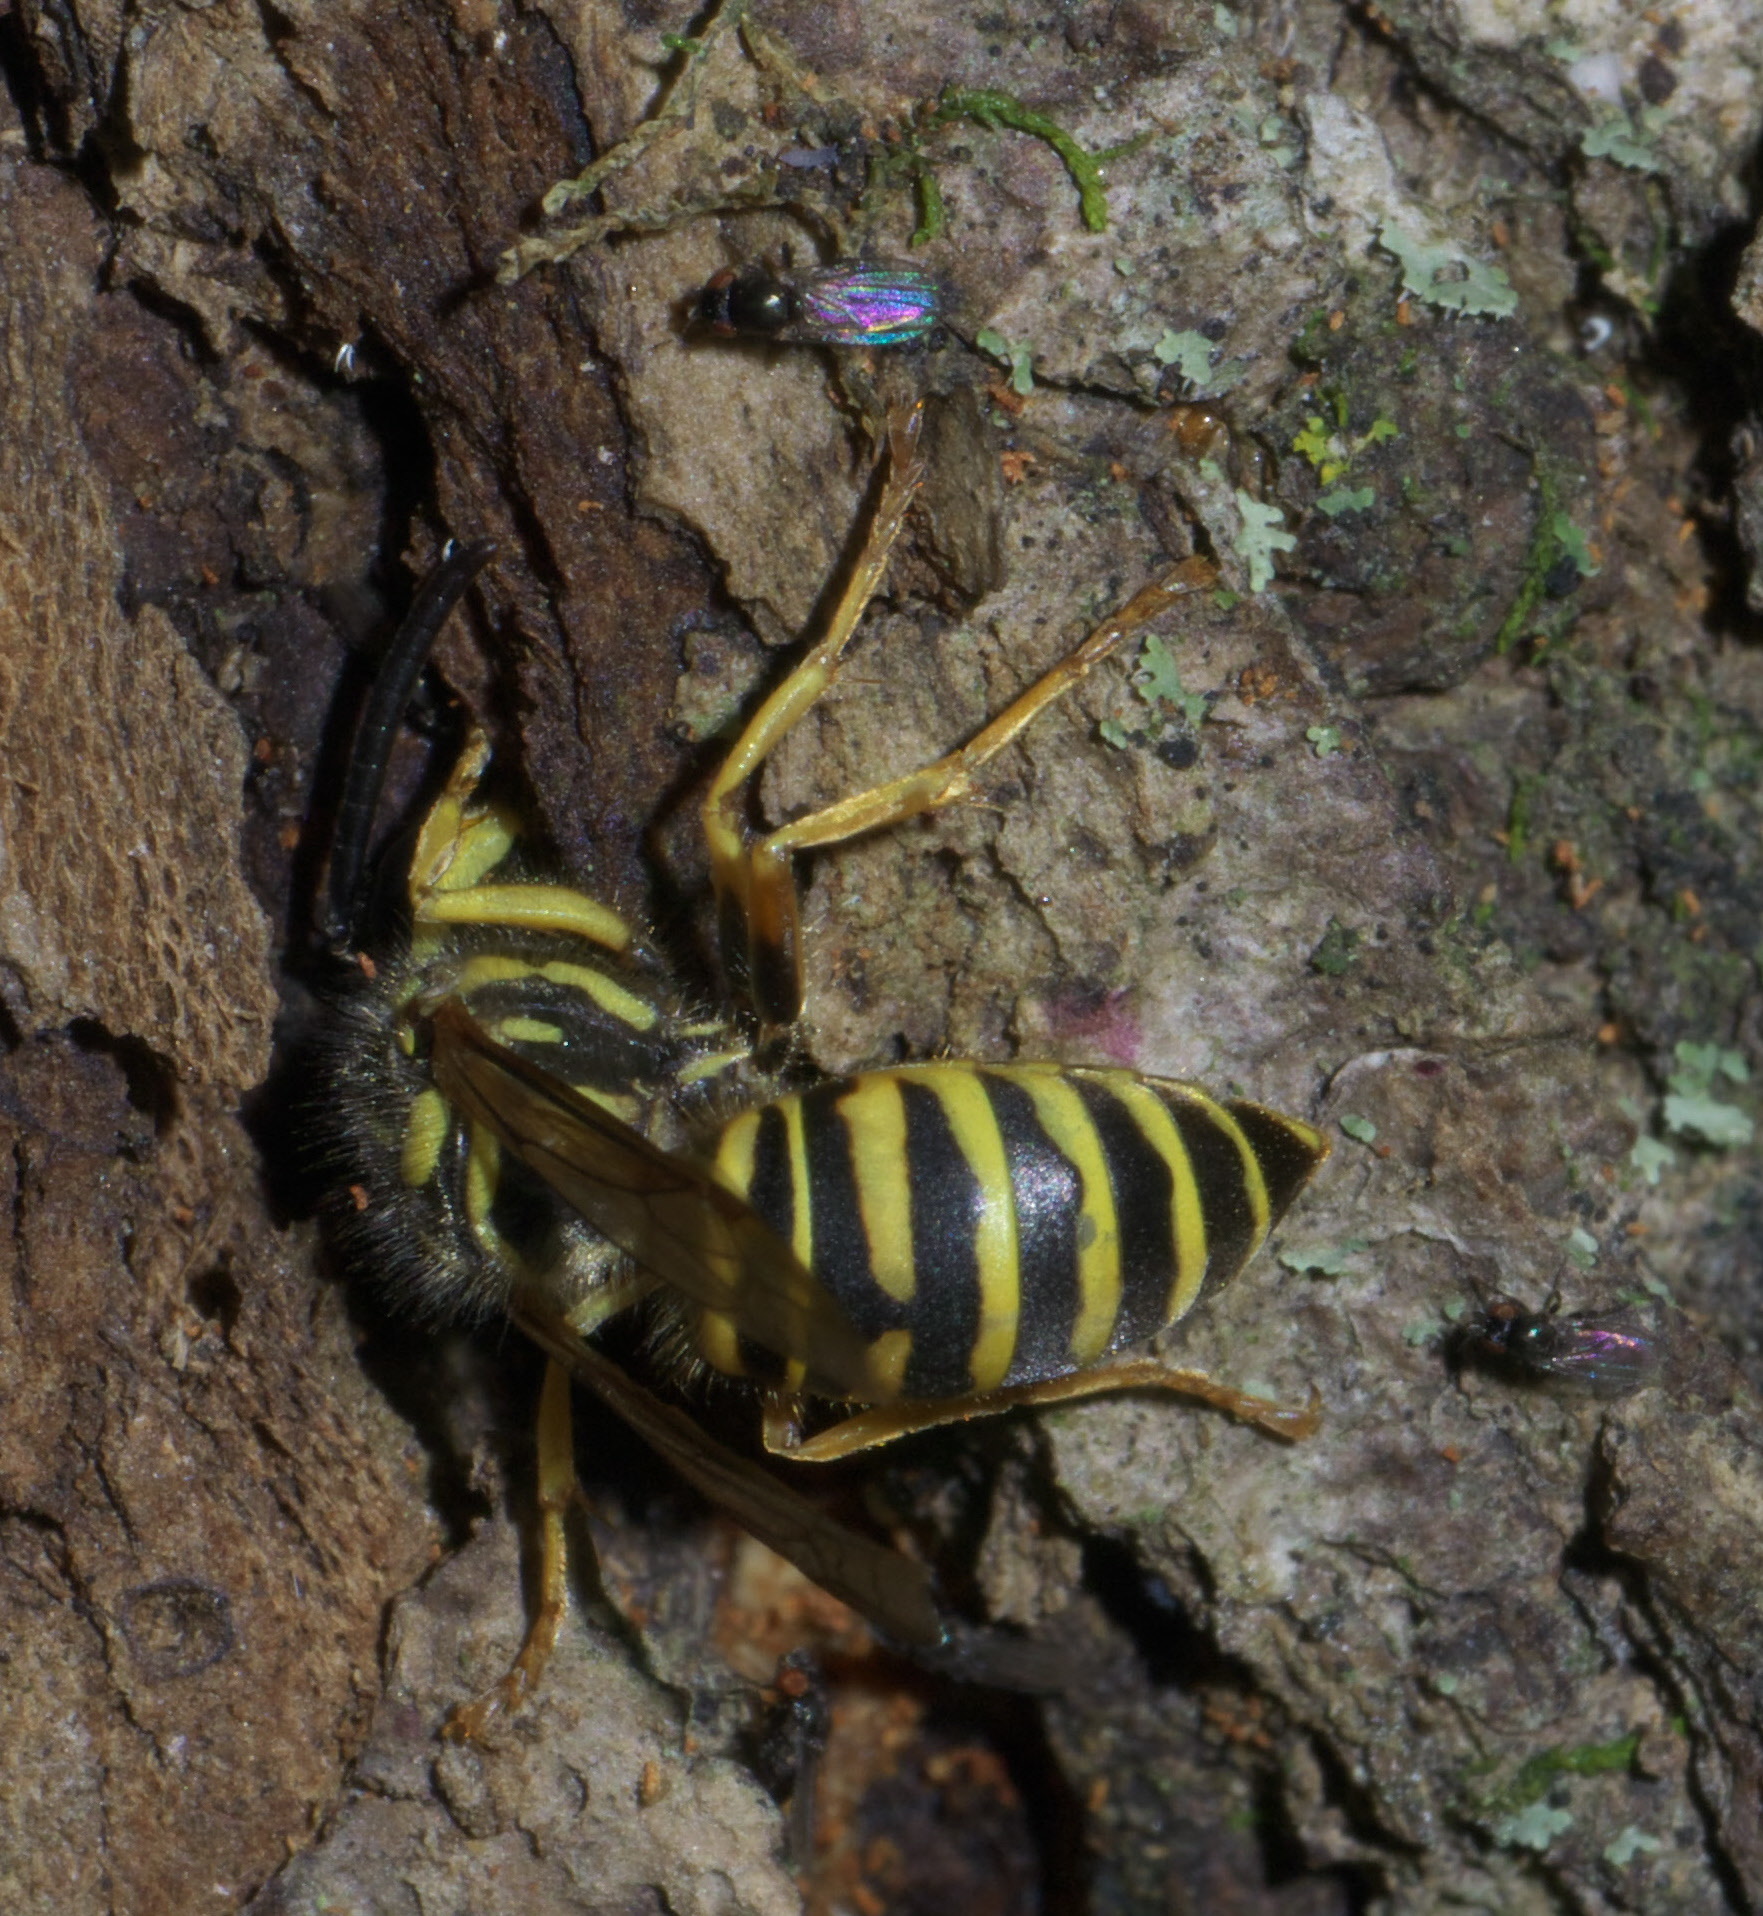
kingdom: Animalia
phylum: Arthropoda
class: Insecta
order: Hymenoptera
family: Vespidae
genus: Vespula
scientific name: Vespula squamosa
